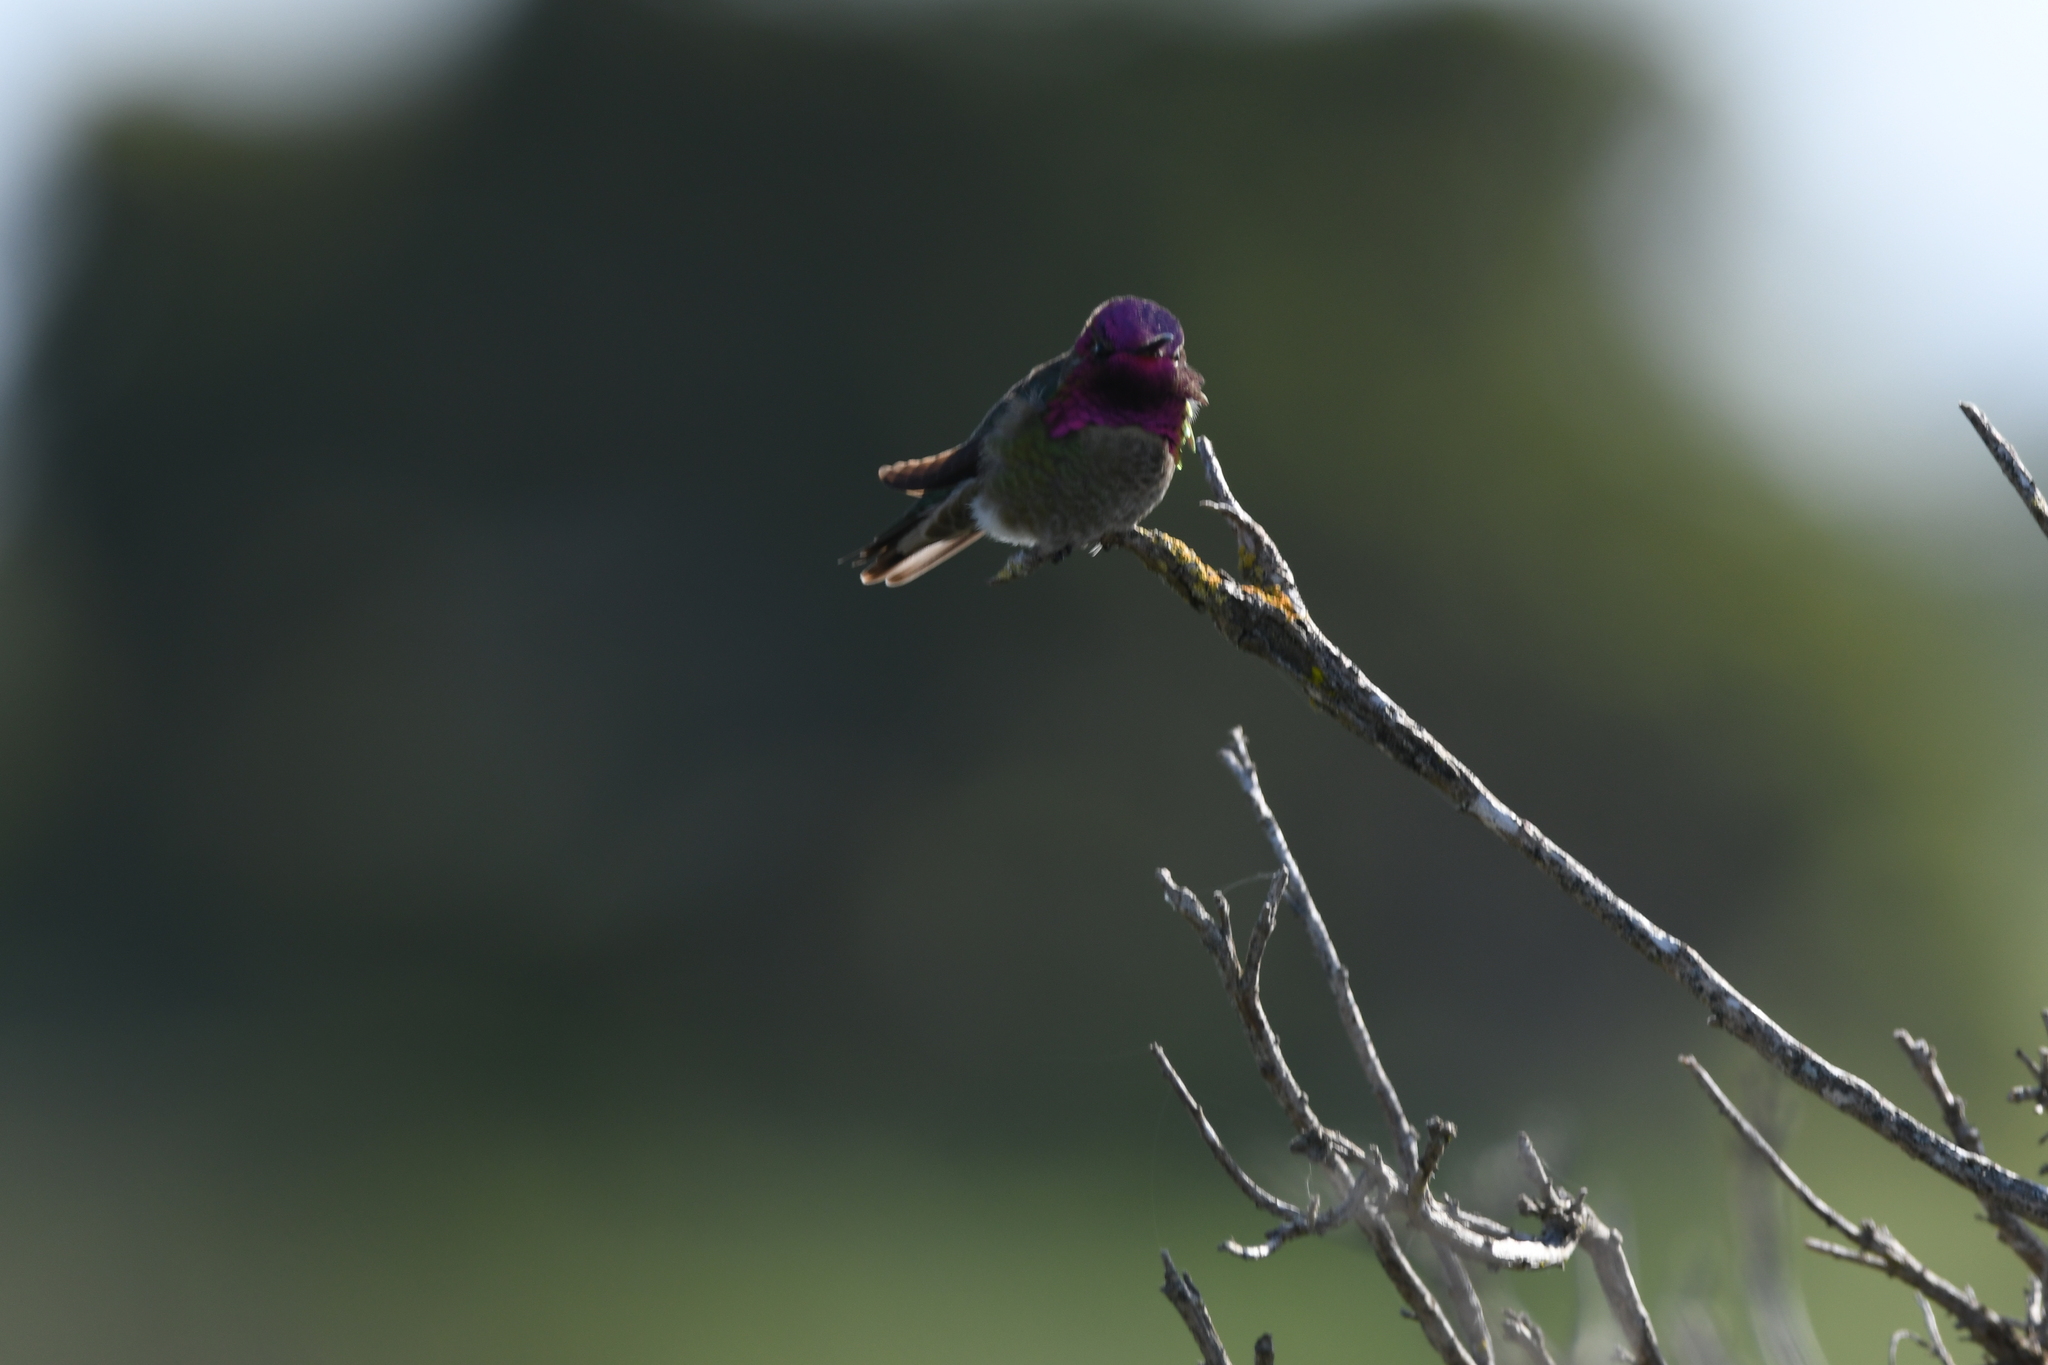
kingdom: Animalia
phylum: Chordata
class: Aves
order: Apodiformes
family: Trochilidae
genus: Calypte
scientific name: Calypte anna
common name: Anna's hummingbird
